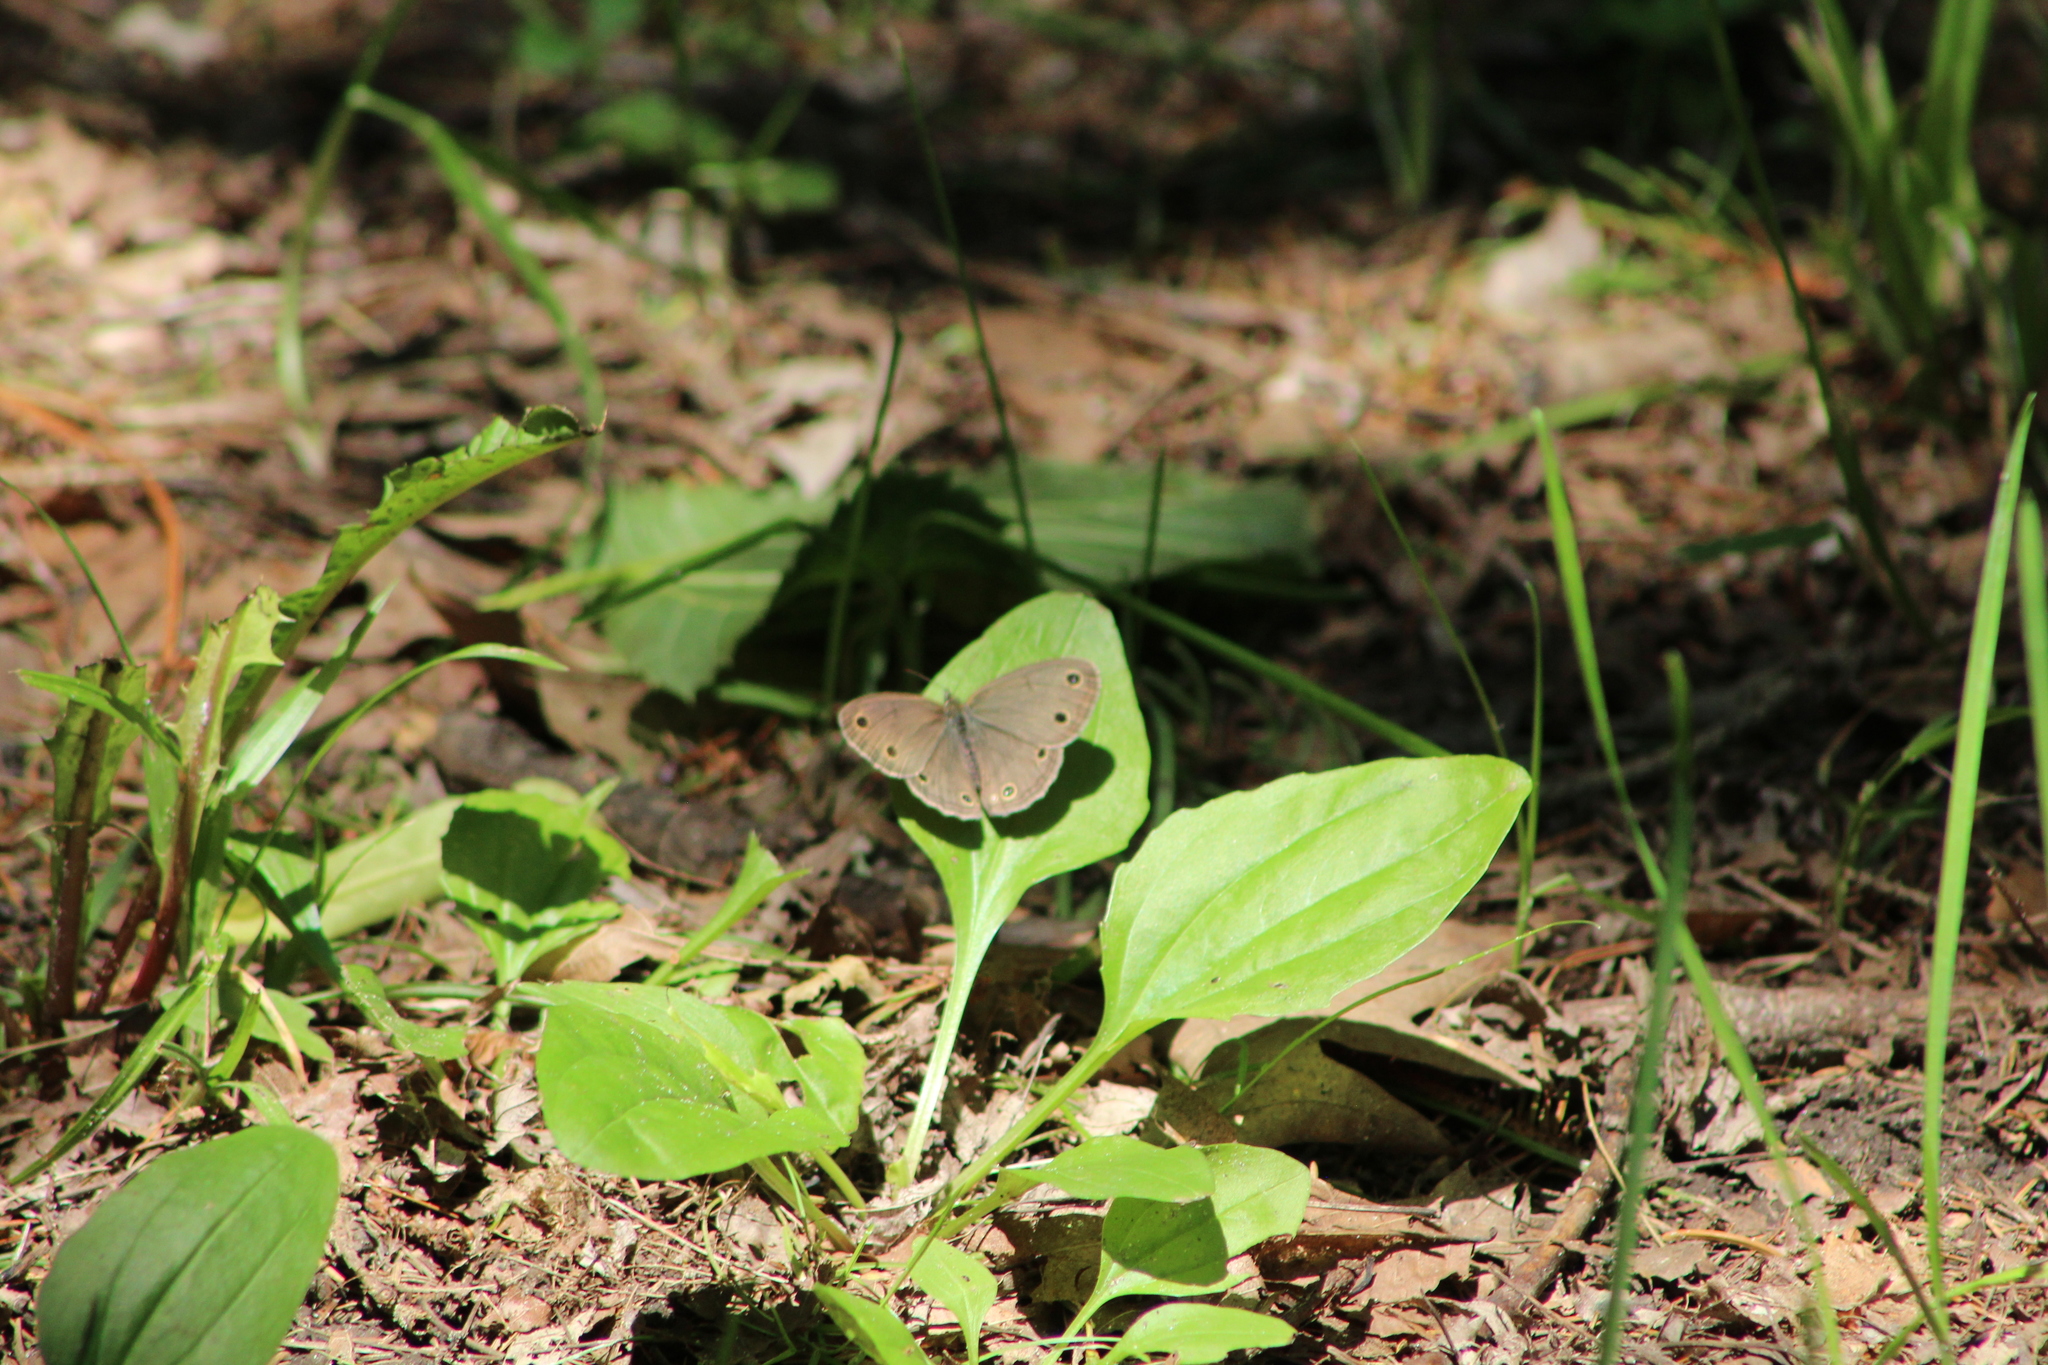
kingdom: Animalia
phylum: Arthropoda
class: Insecta
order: Lepidoptera
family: Nymphalidae
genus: Euptychia
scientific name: Euptychia cymela
